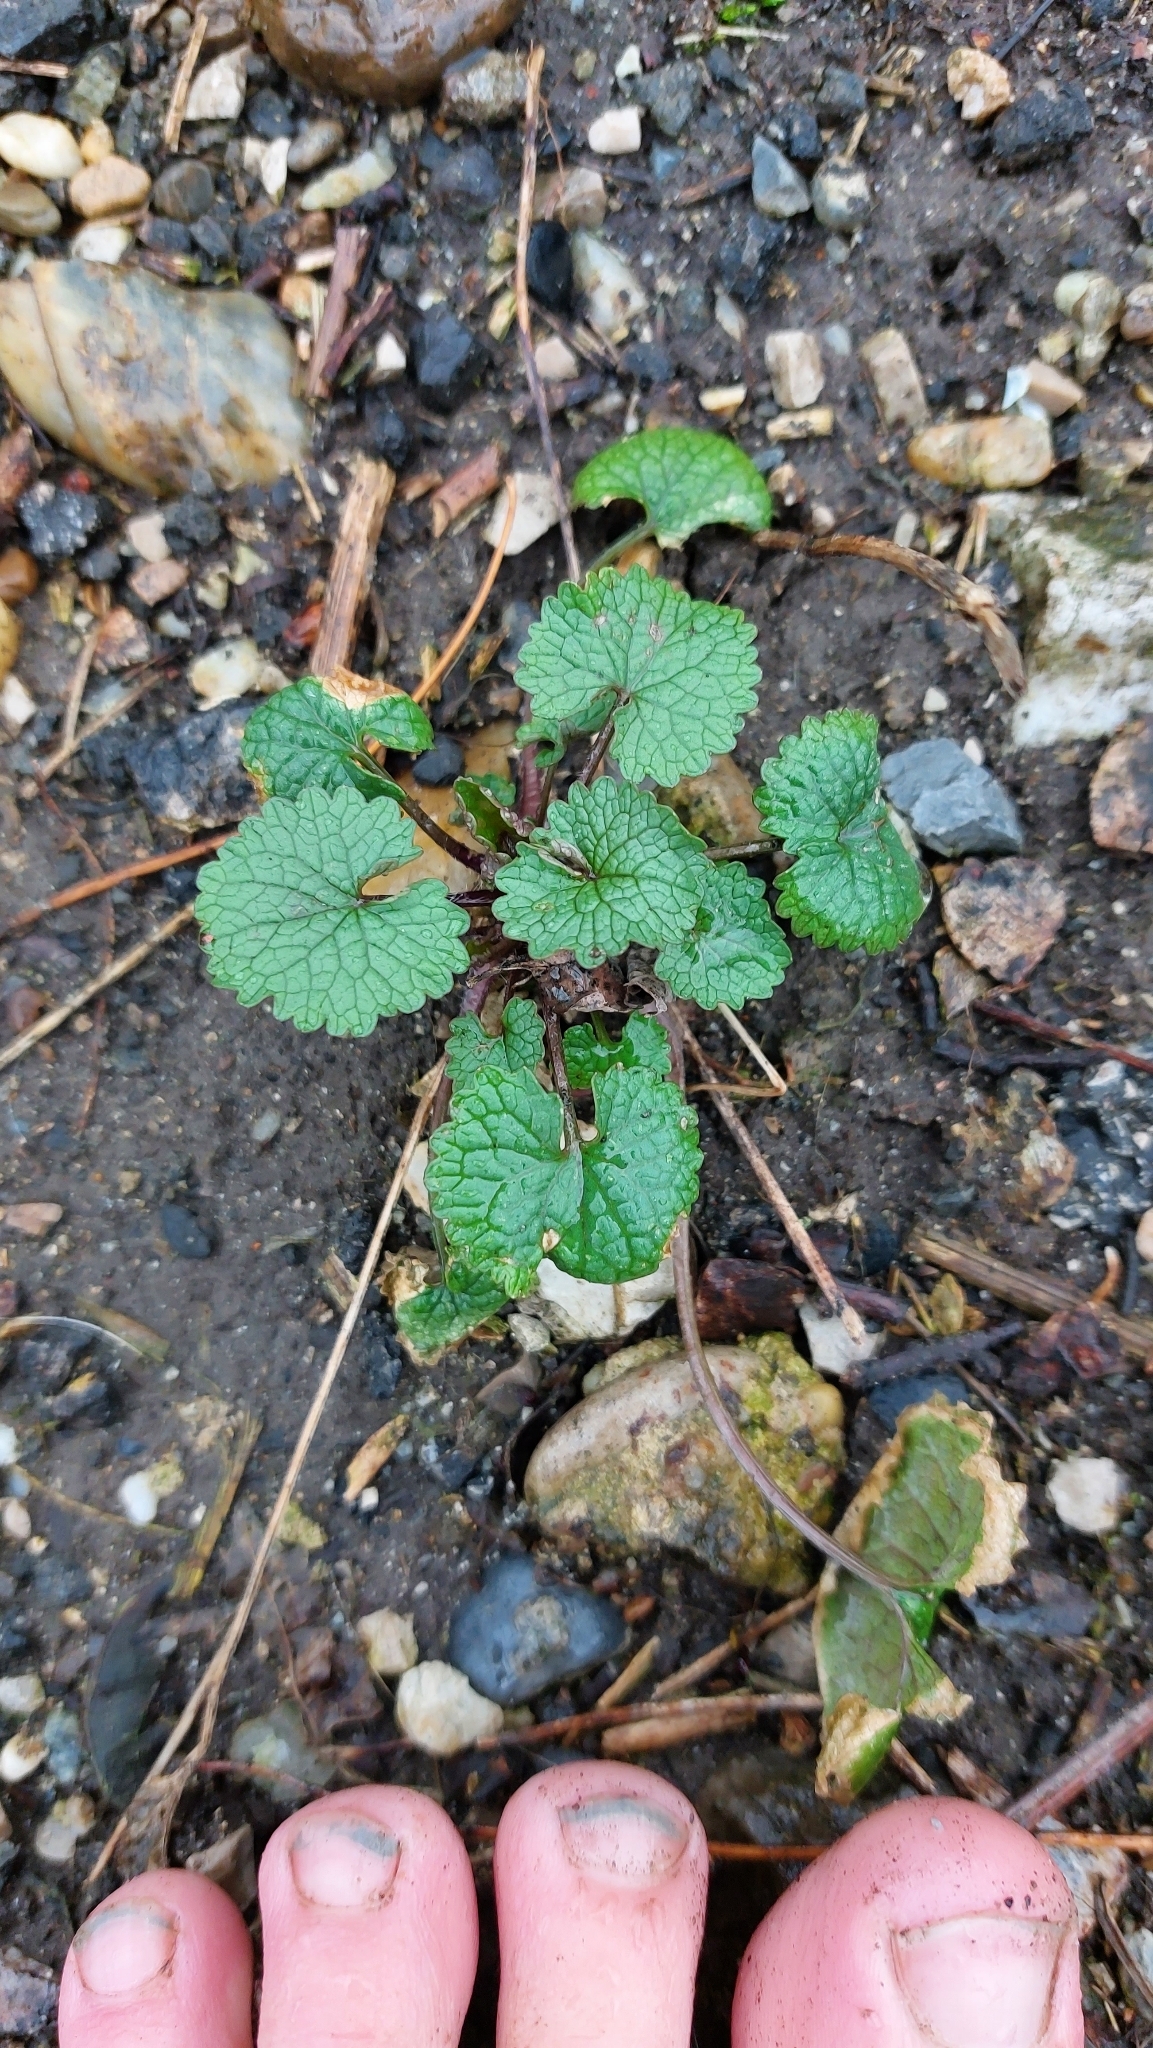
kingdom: Plantae
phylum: Tracheophyta
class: Magnoliopsida
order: Brassicales
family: Brassicaceae
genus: Alliaria
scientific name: Alliaria petiolata
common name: Garlic mustard
